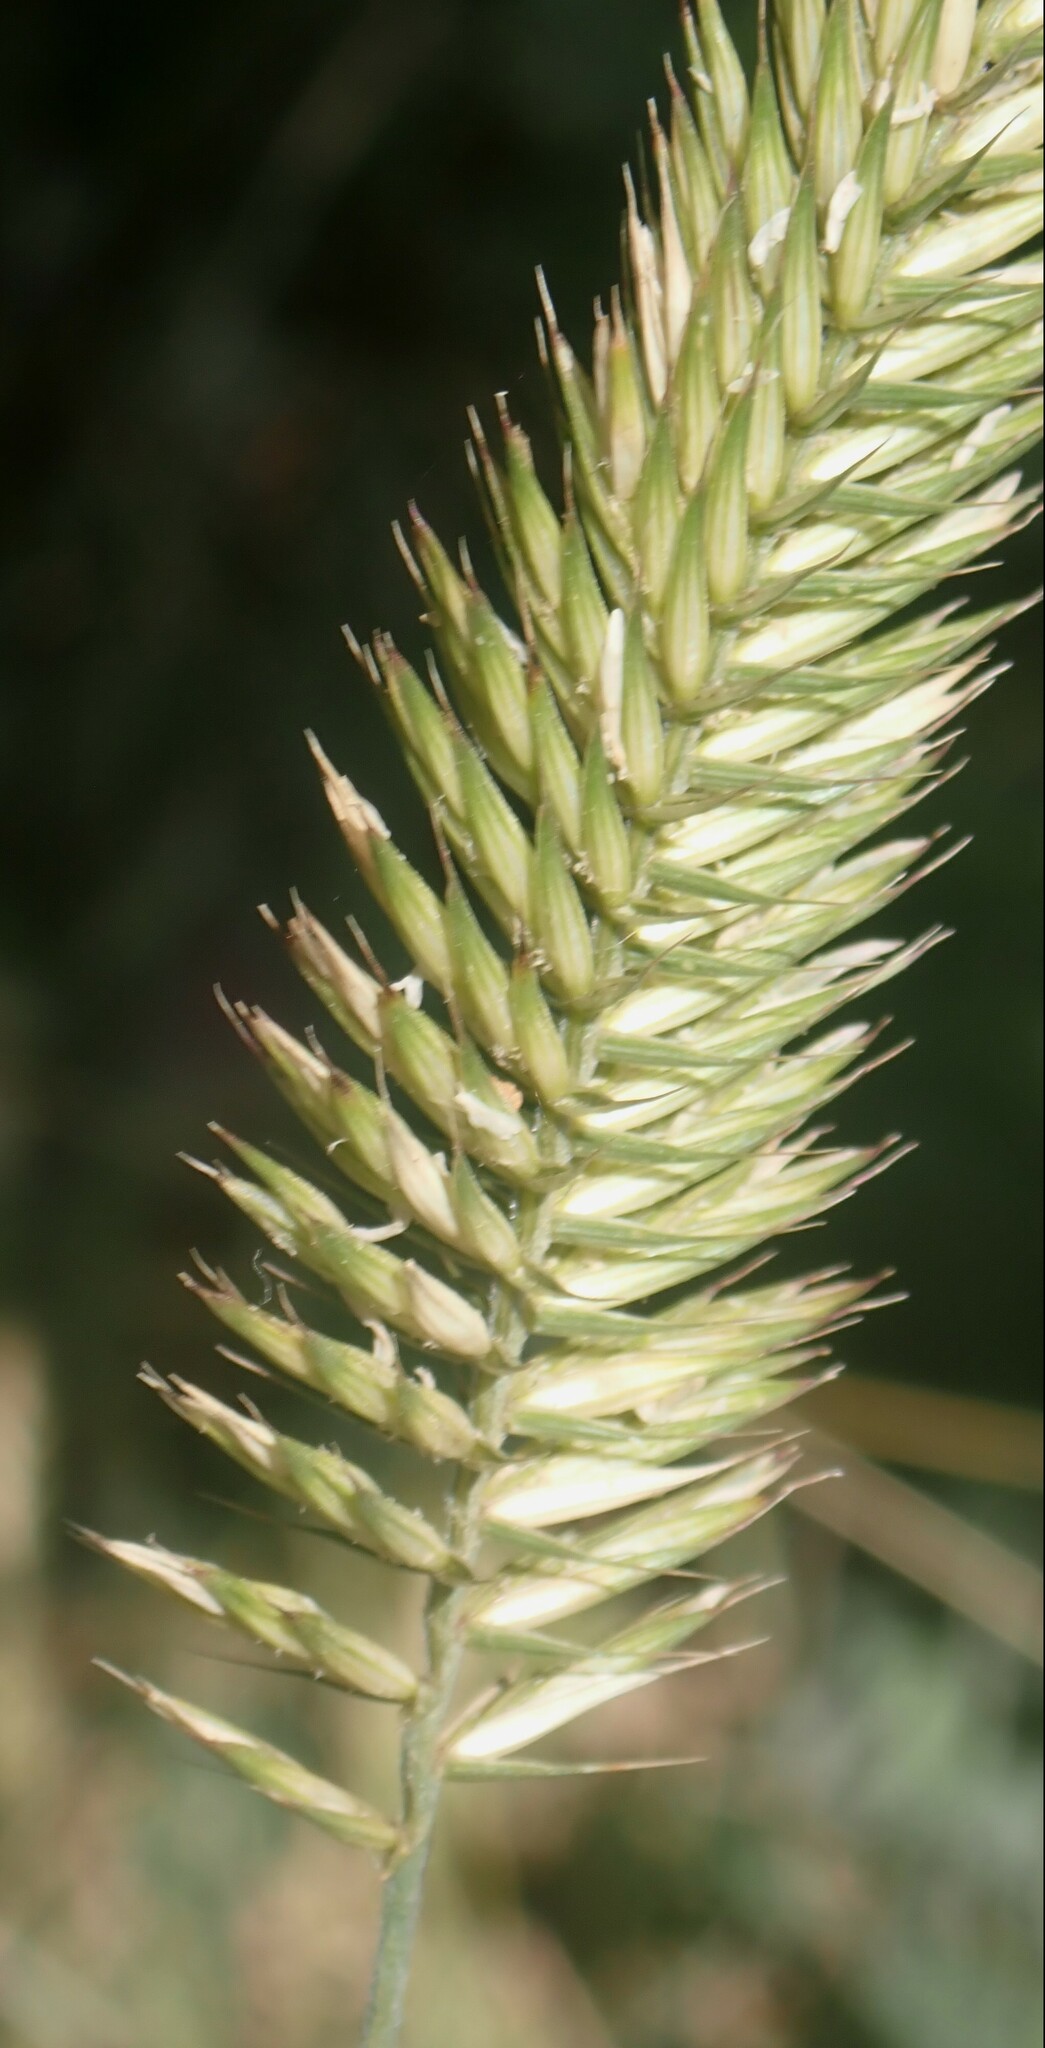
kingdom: Plantae
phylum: Tracheophyta
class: Liliopsida
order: Poales
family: Poaceae
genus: Agropyron
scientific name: Agropyron cristatum
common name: Crested wheatgrass
